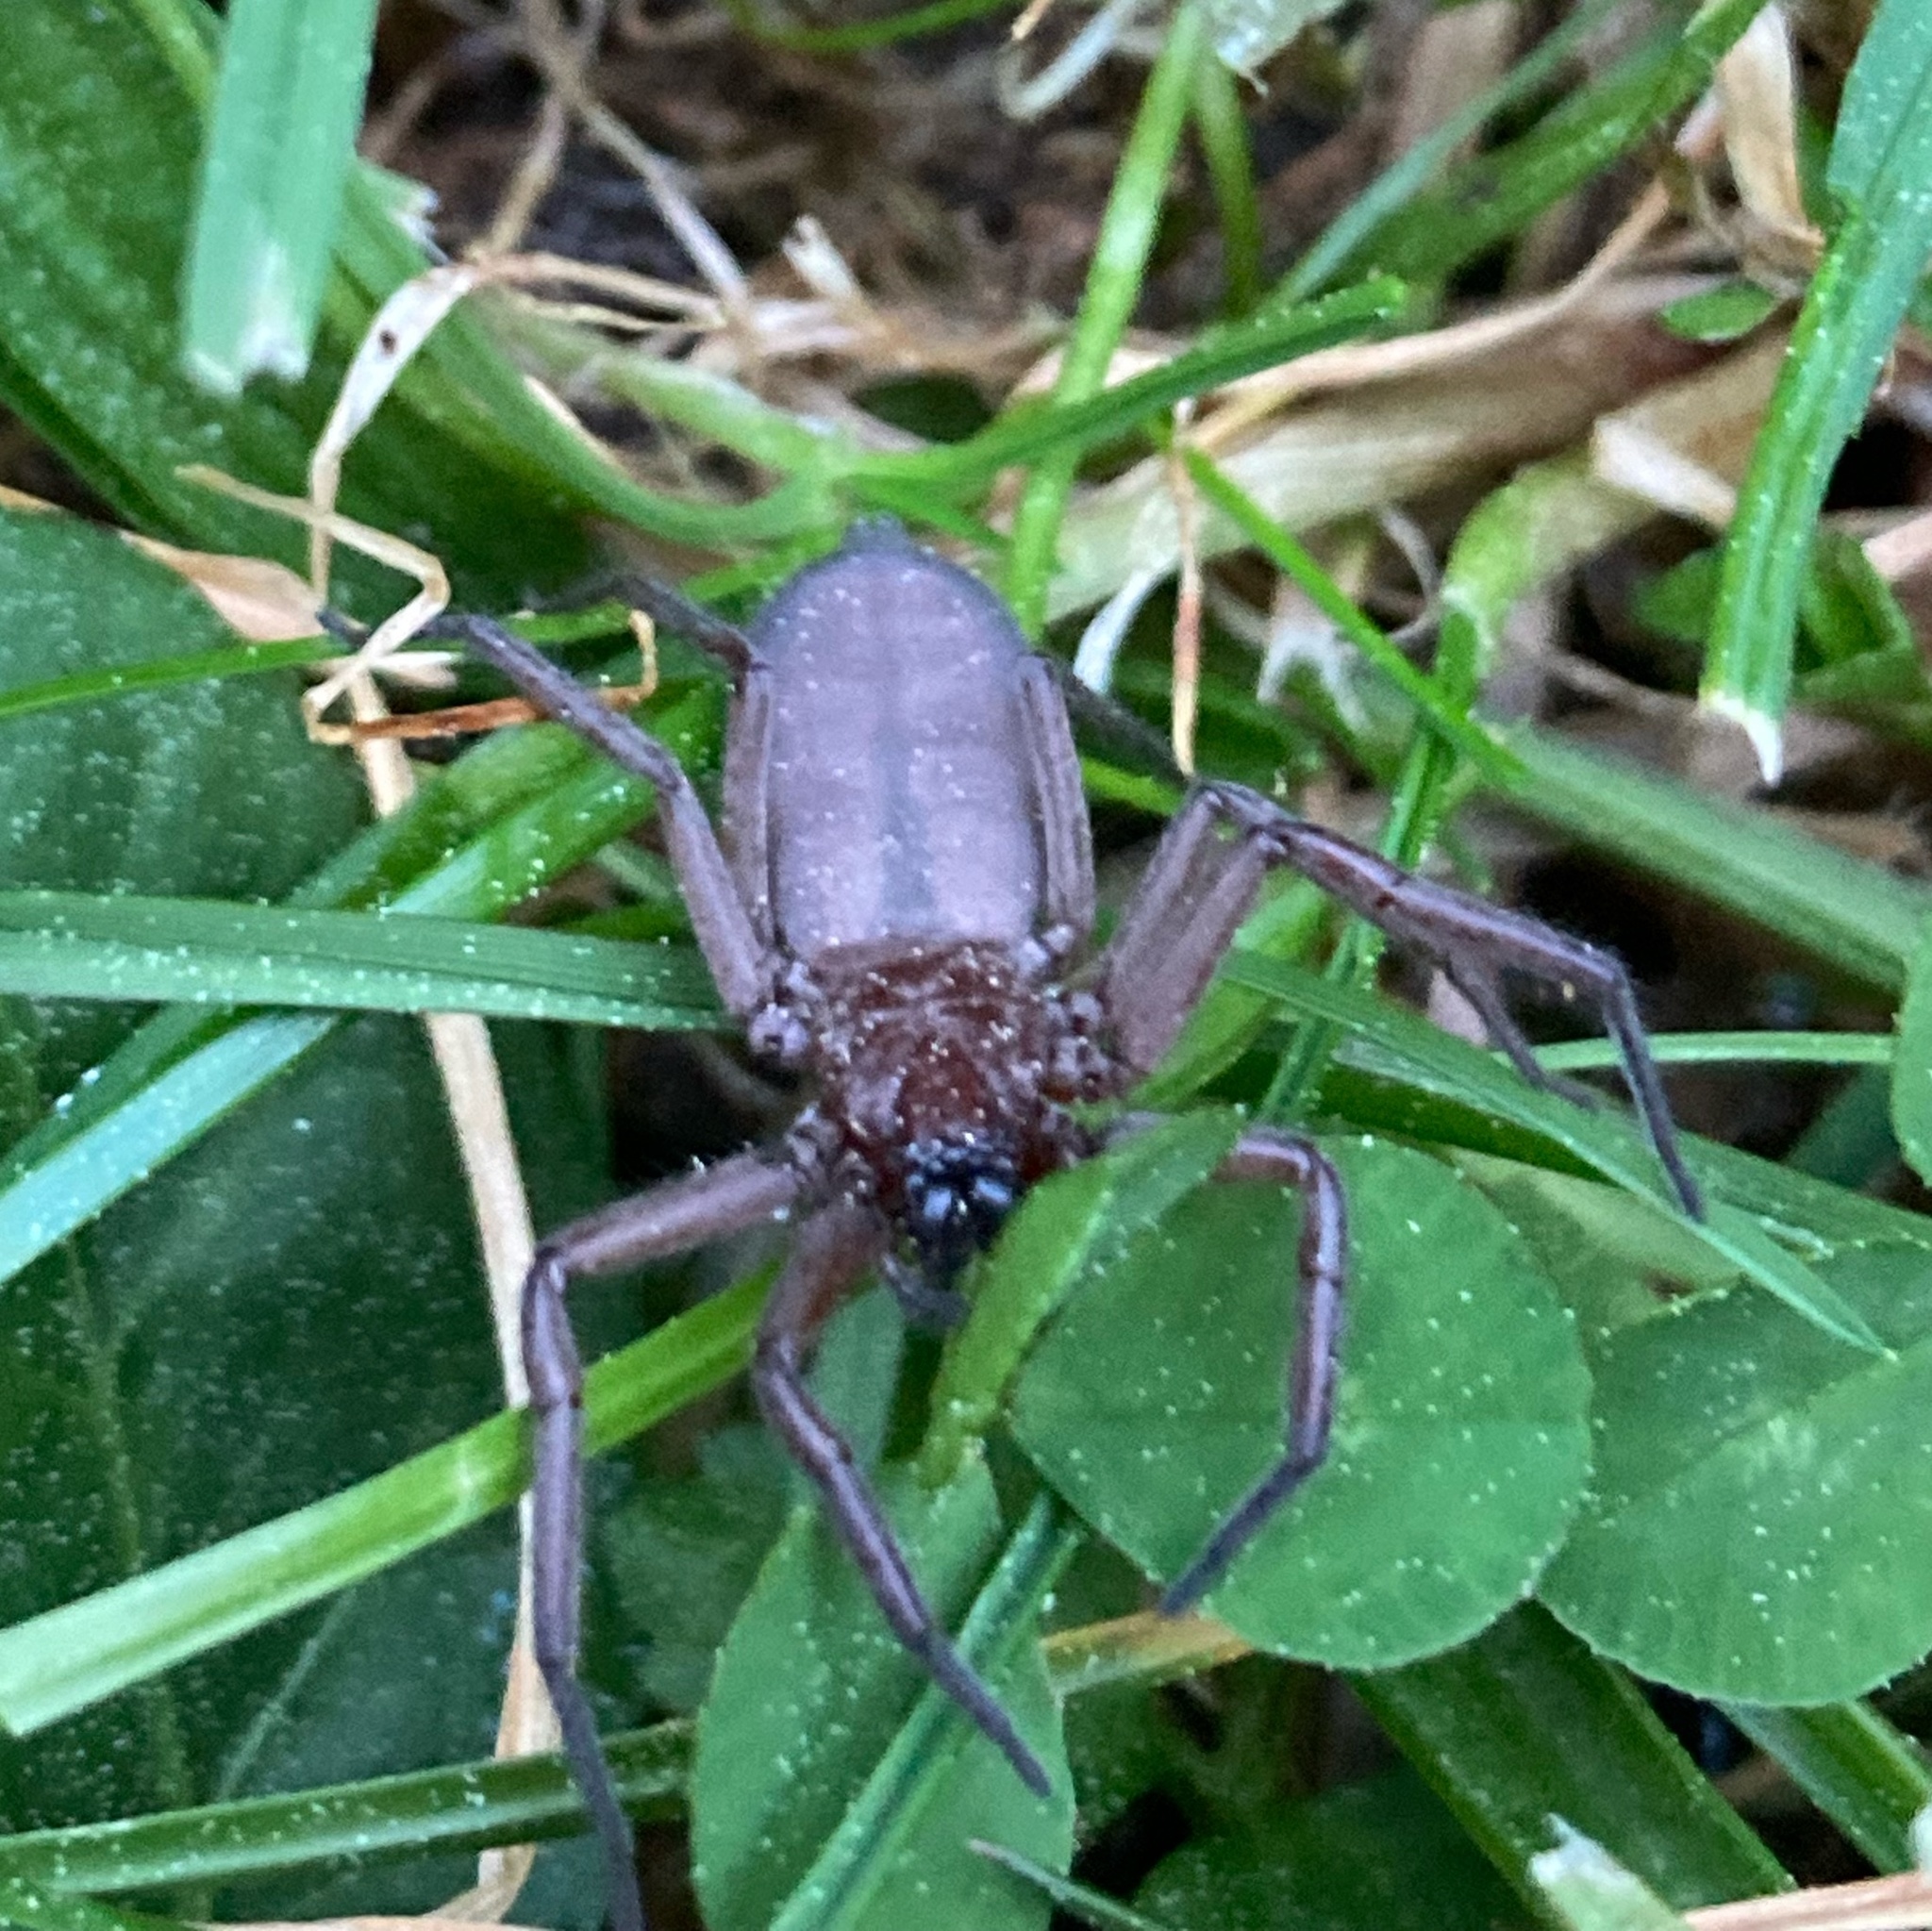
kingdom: Animalia
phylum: Arthropoda
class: Arachnida
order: Araneae
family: Trochanteriidae
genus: Hemicloea
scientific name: Hemicloea rogenhoferi
